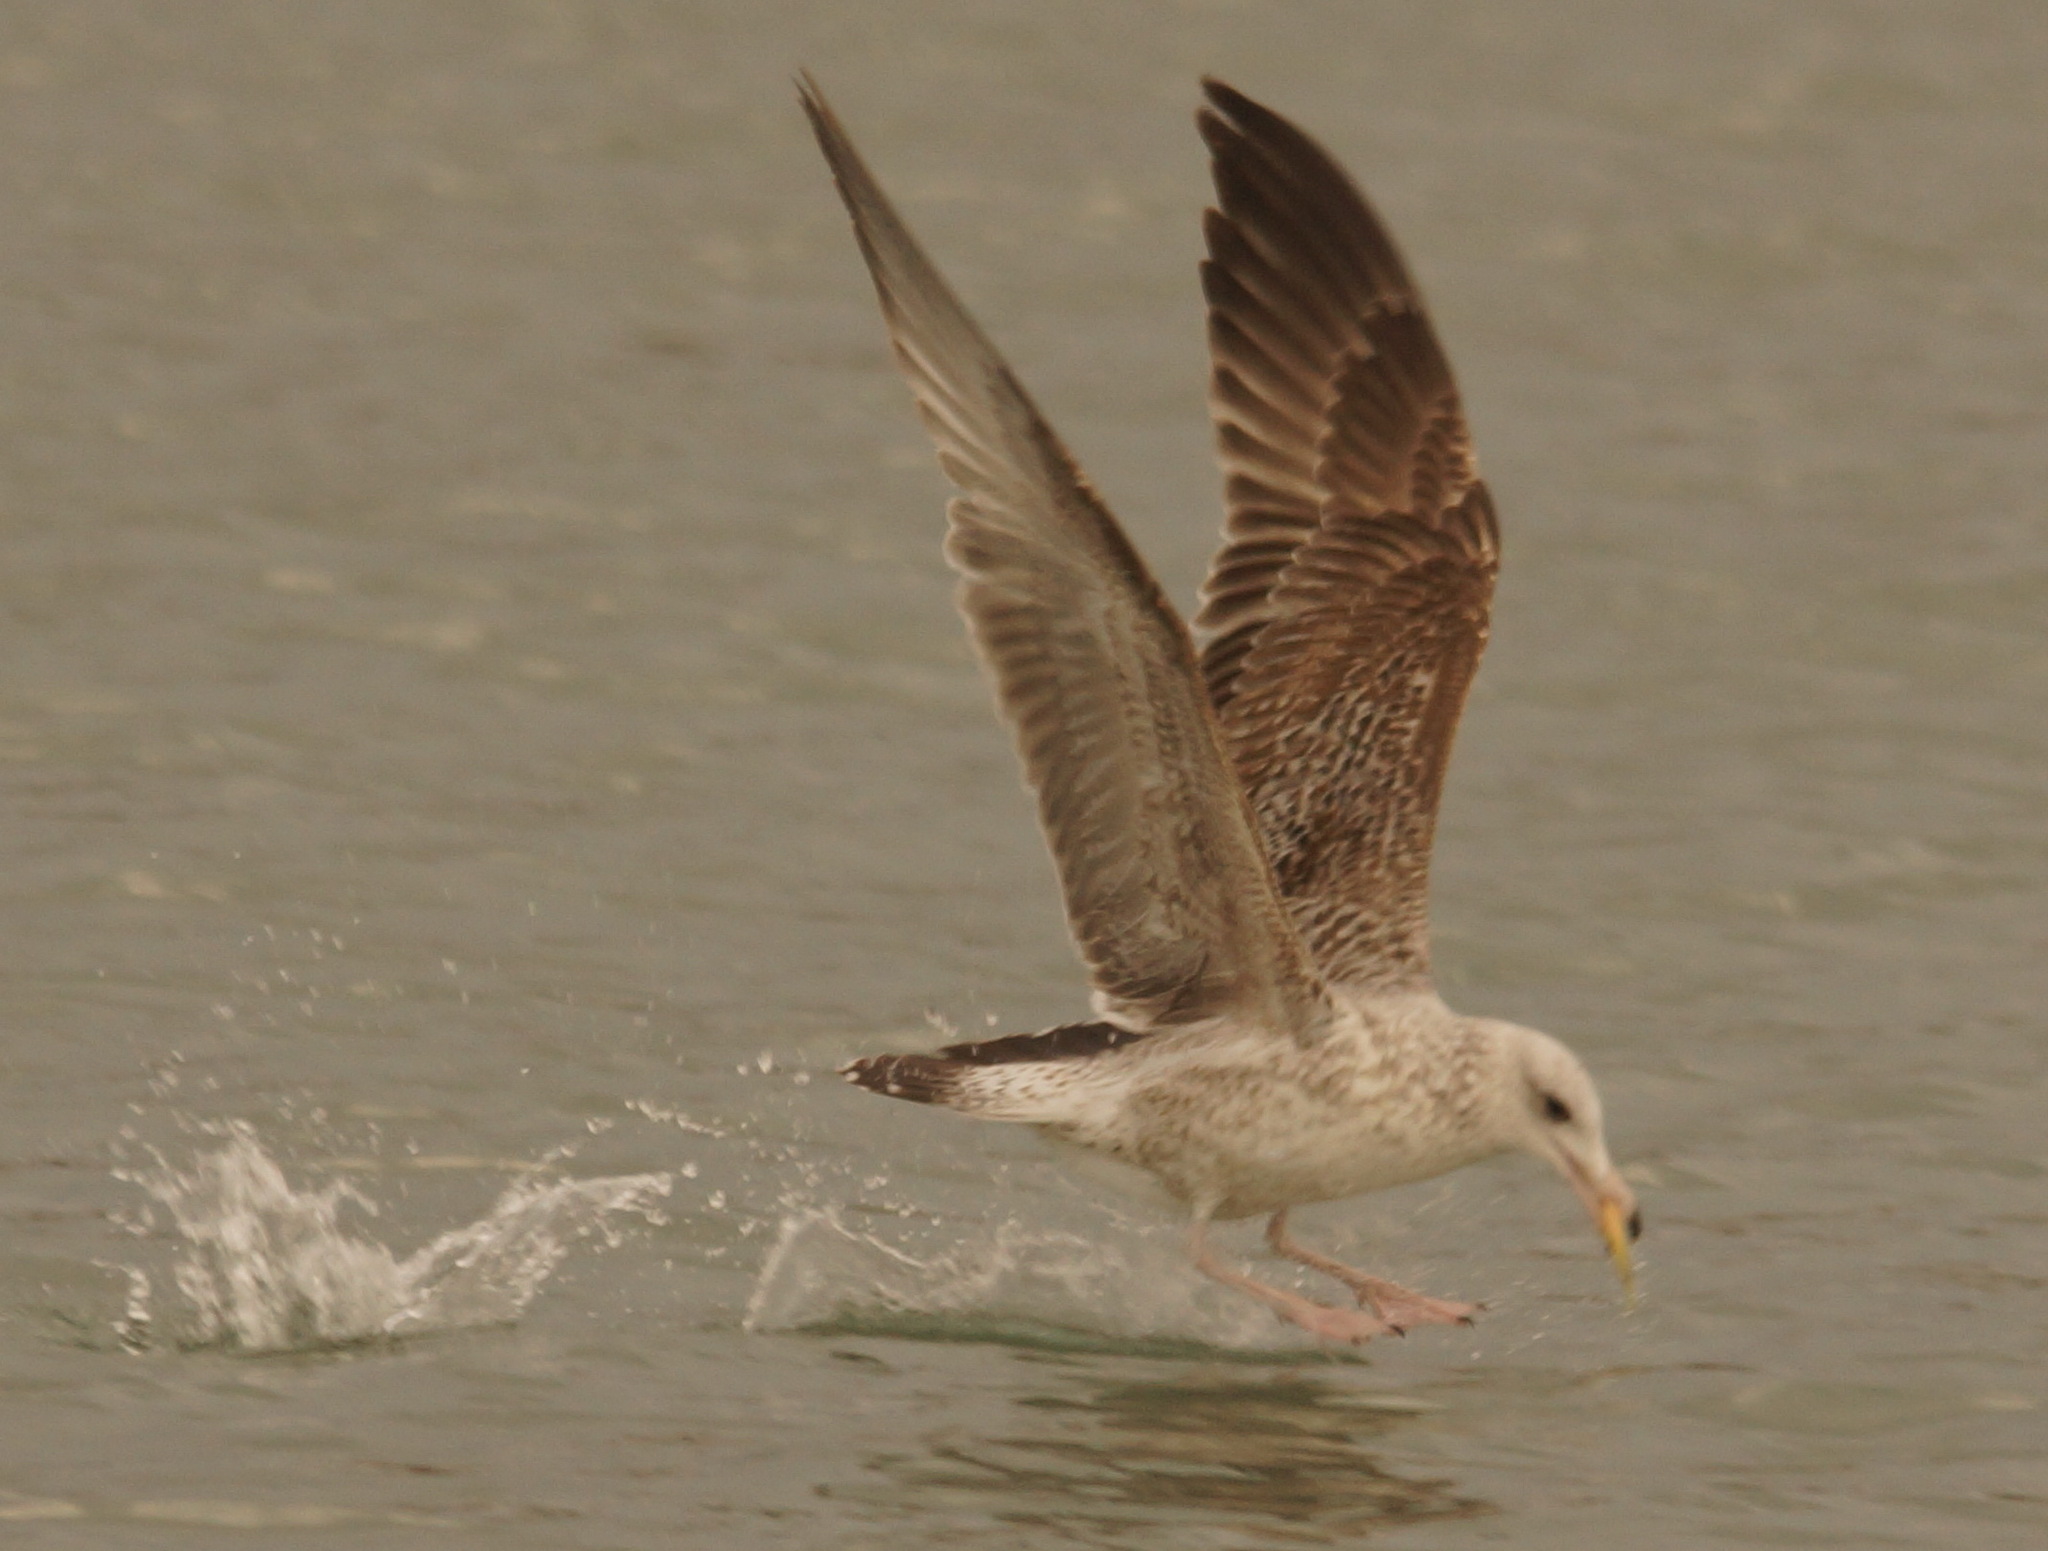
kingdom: Animalia
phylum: Chordata
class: Aves
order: Charadriiformes
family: Laridae
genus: Larus
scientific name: Larus michahellis
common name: Yellow-legged gull
